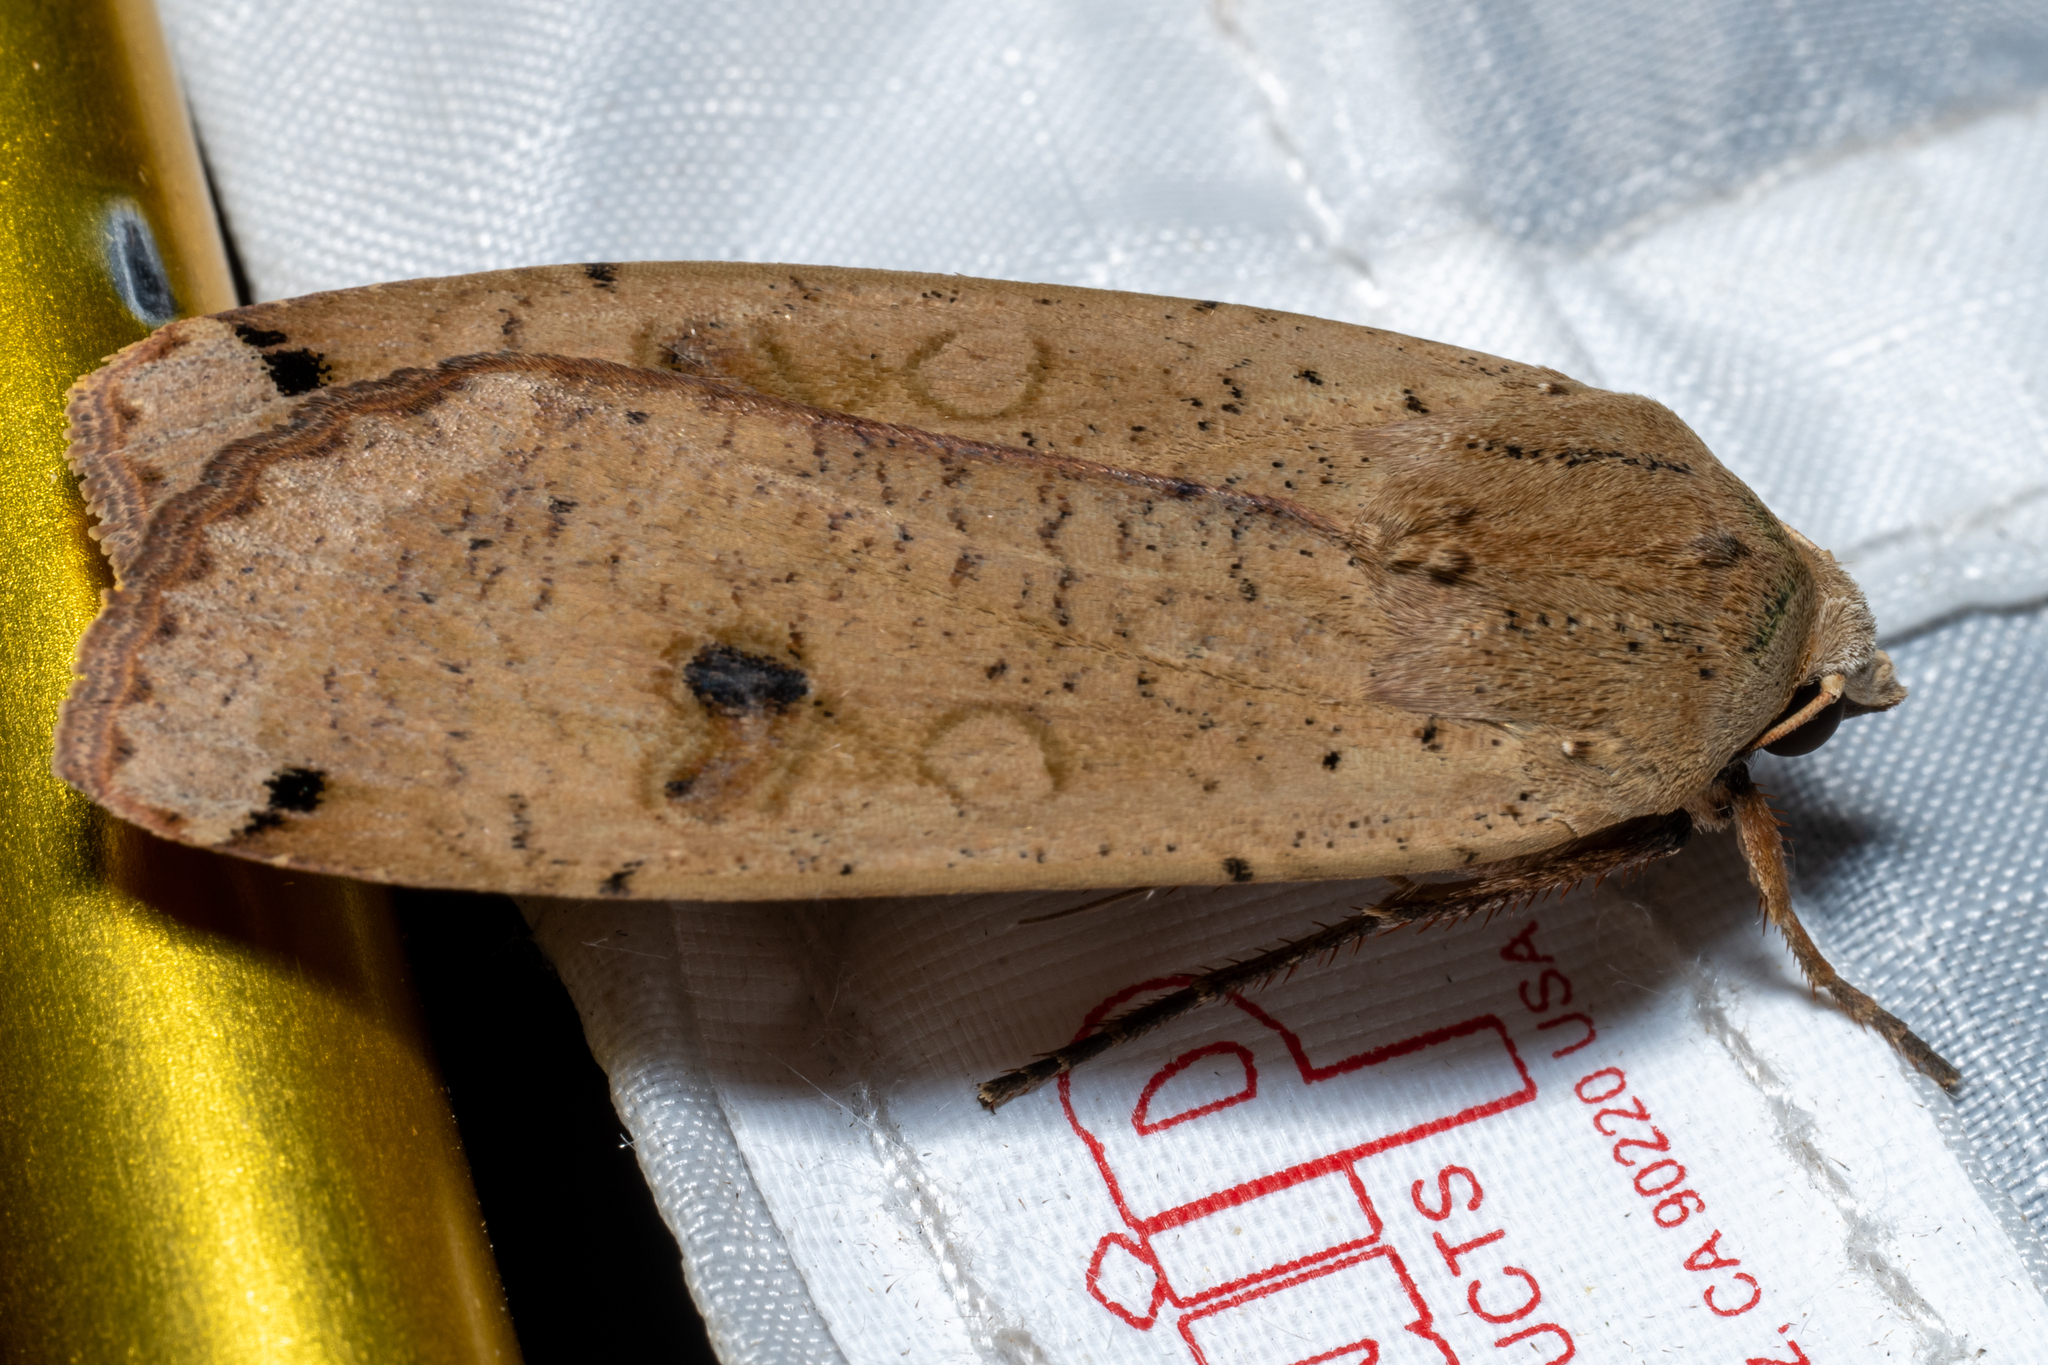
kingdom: Animalia
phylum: Arthropoda
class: Insecta
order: Lepidoptera
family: Noctuidae
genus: Noctua
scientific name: Noctua pronuba
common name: Large yellow underwing
